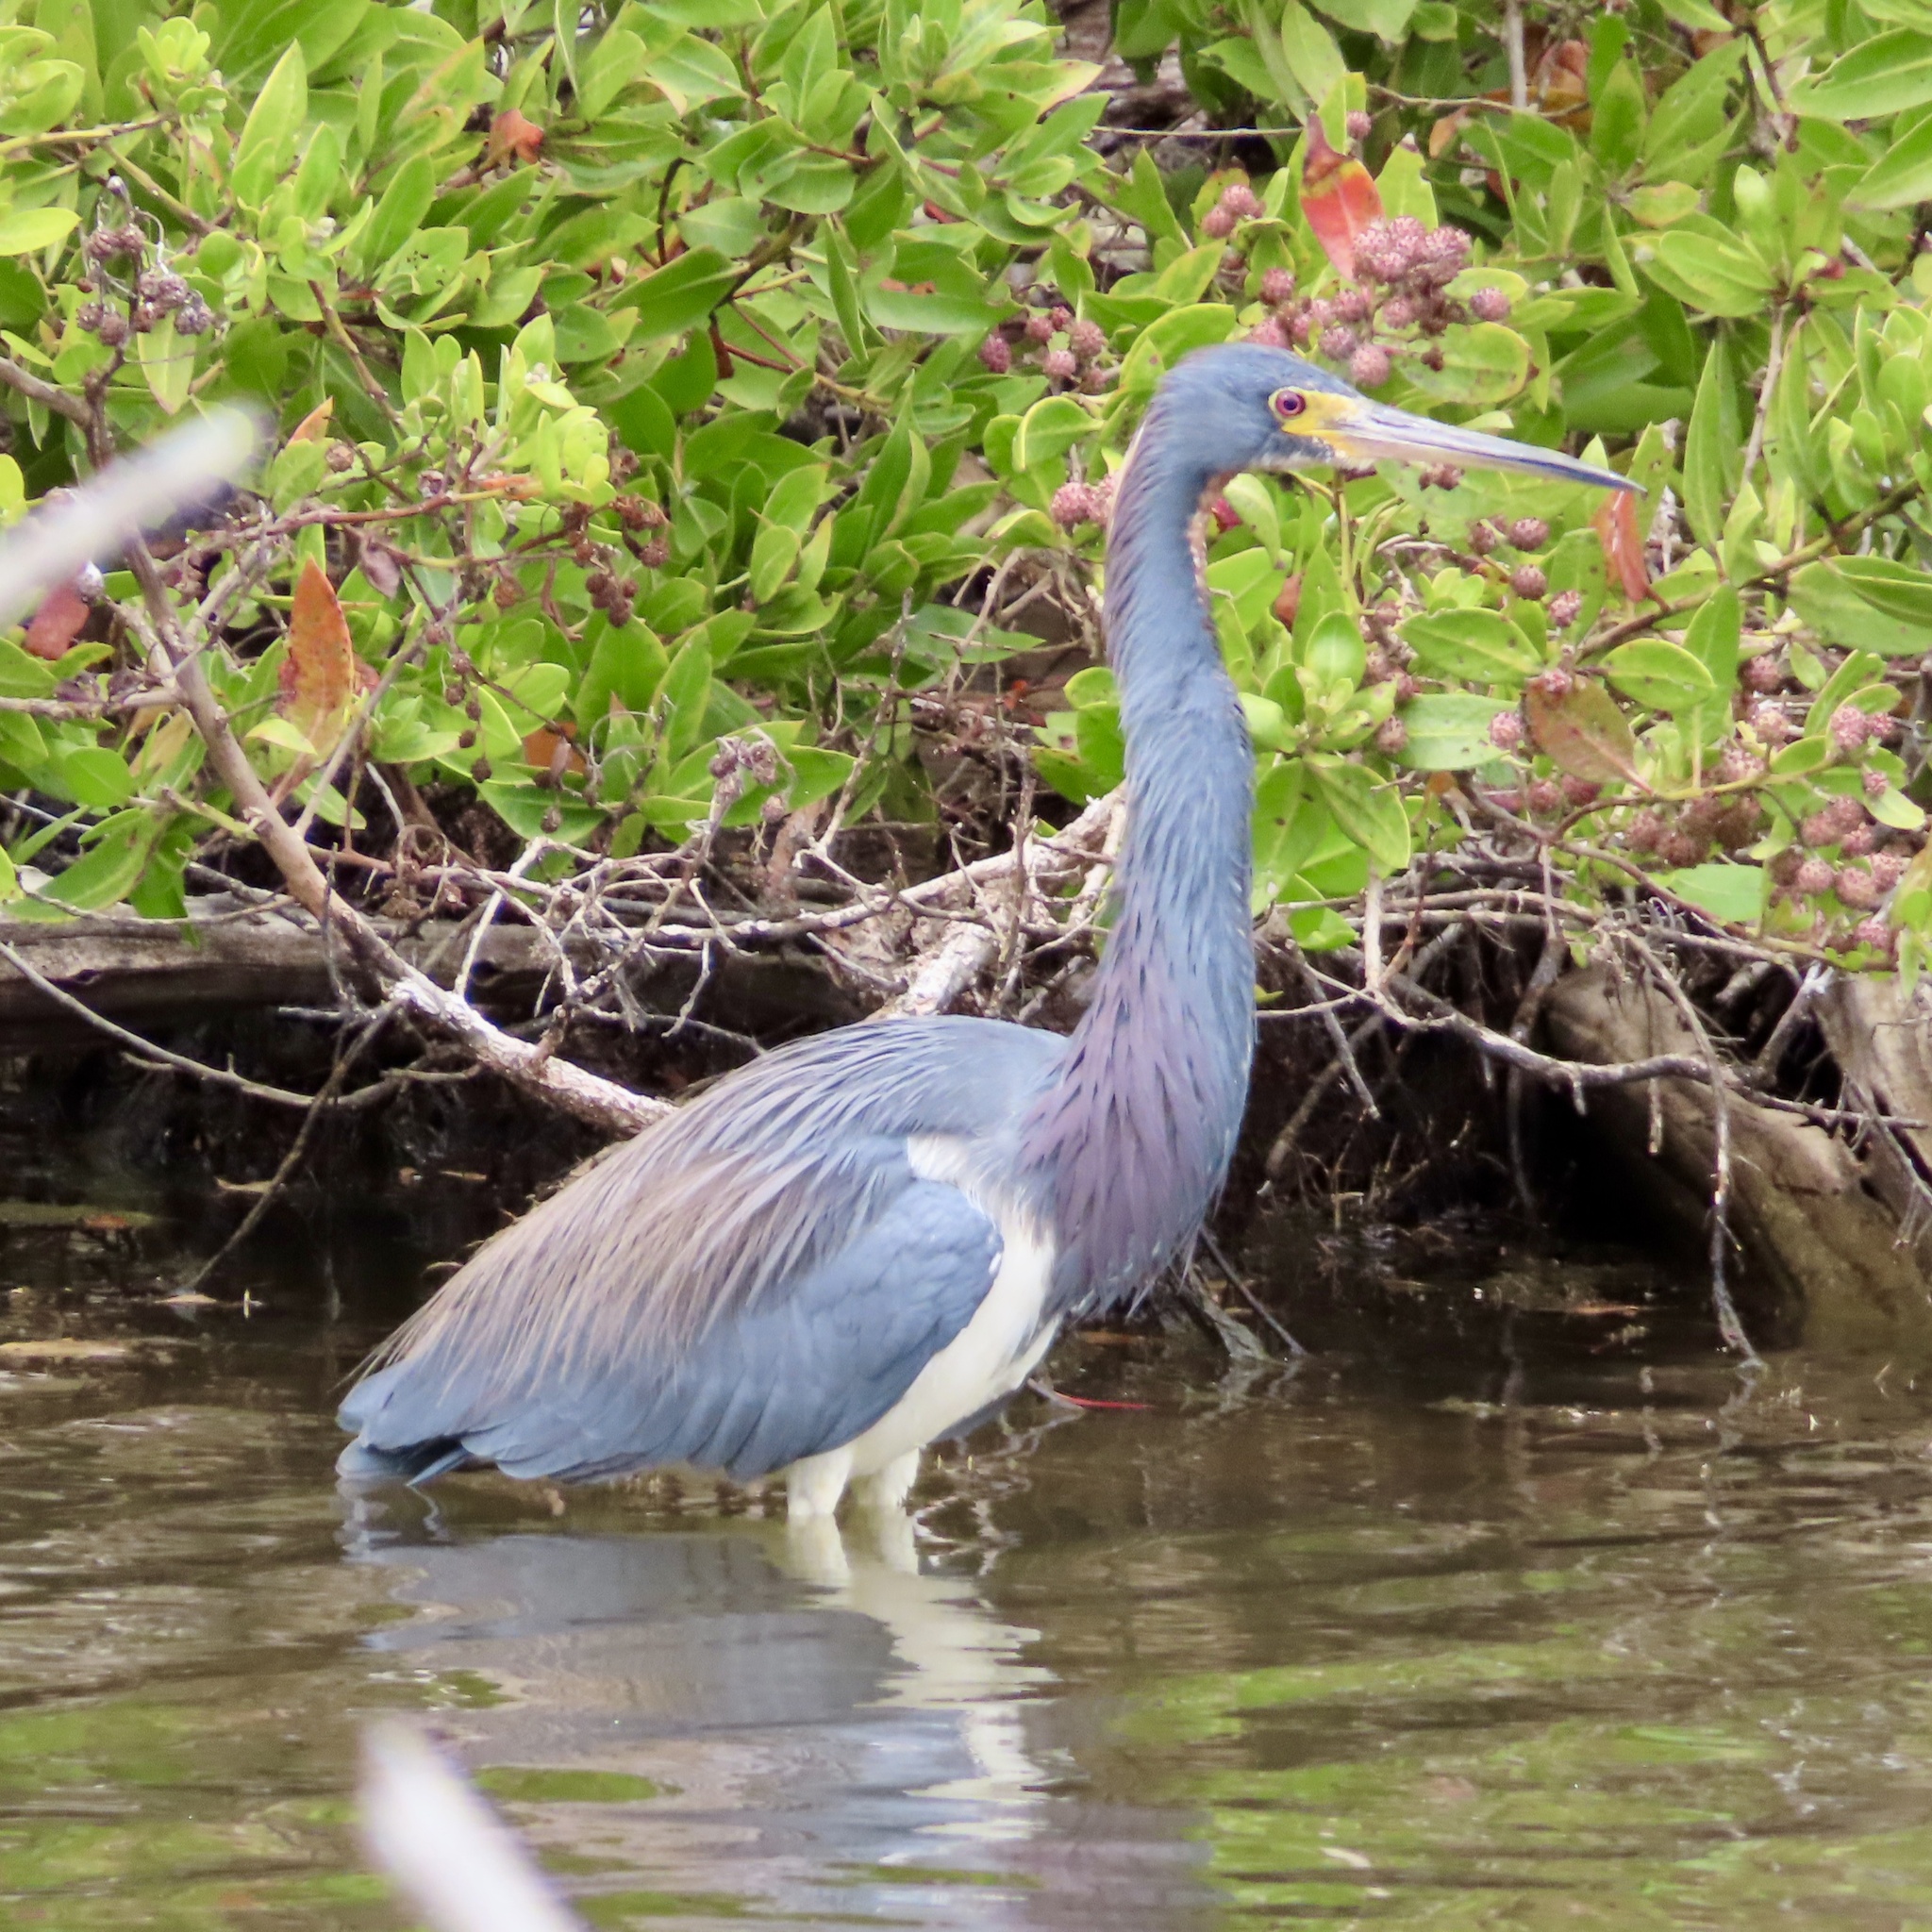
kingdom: Animalia
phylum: Chordata
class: Aves
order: Pelecaniformes
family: Ardeidae
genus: Egretta
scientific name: Egretta tricolor
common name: Tricolored heron
